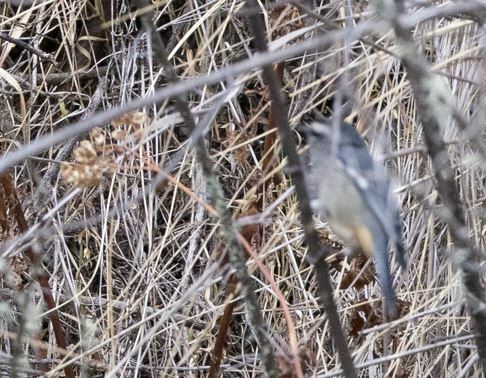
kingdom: Animalia
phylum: Chordata
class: Aves
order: Passeriformes
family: Thraupidae
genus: Conirostrum
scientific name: Conirostrum cinereum
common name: Cinereous conebill
